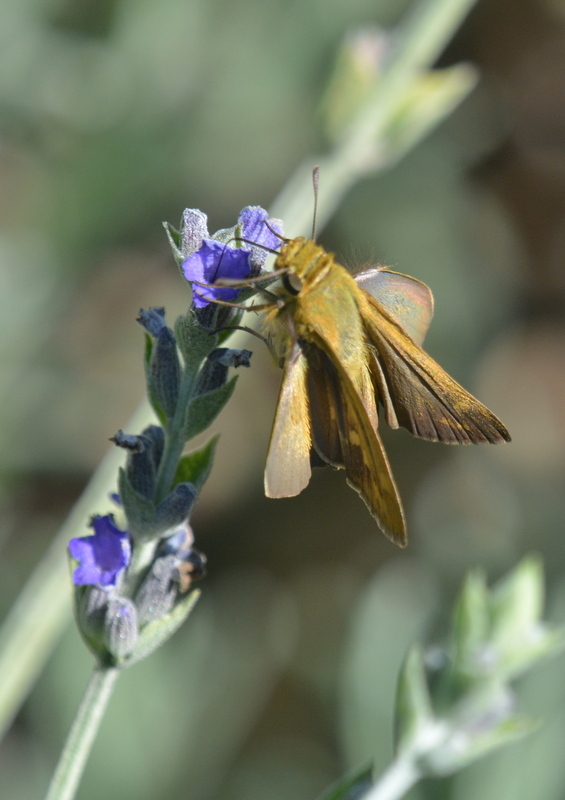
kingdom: Animalia
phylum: Arthropoda
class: Insecta
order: Lepidoptera
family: Hesperiidae
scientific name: Hesperiidae
